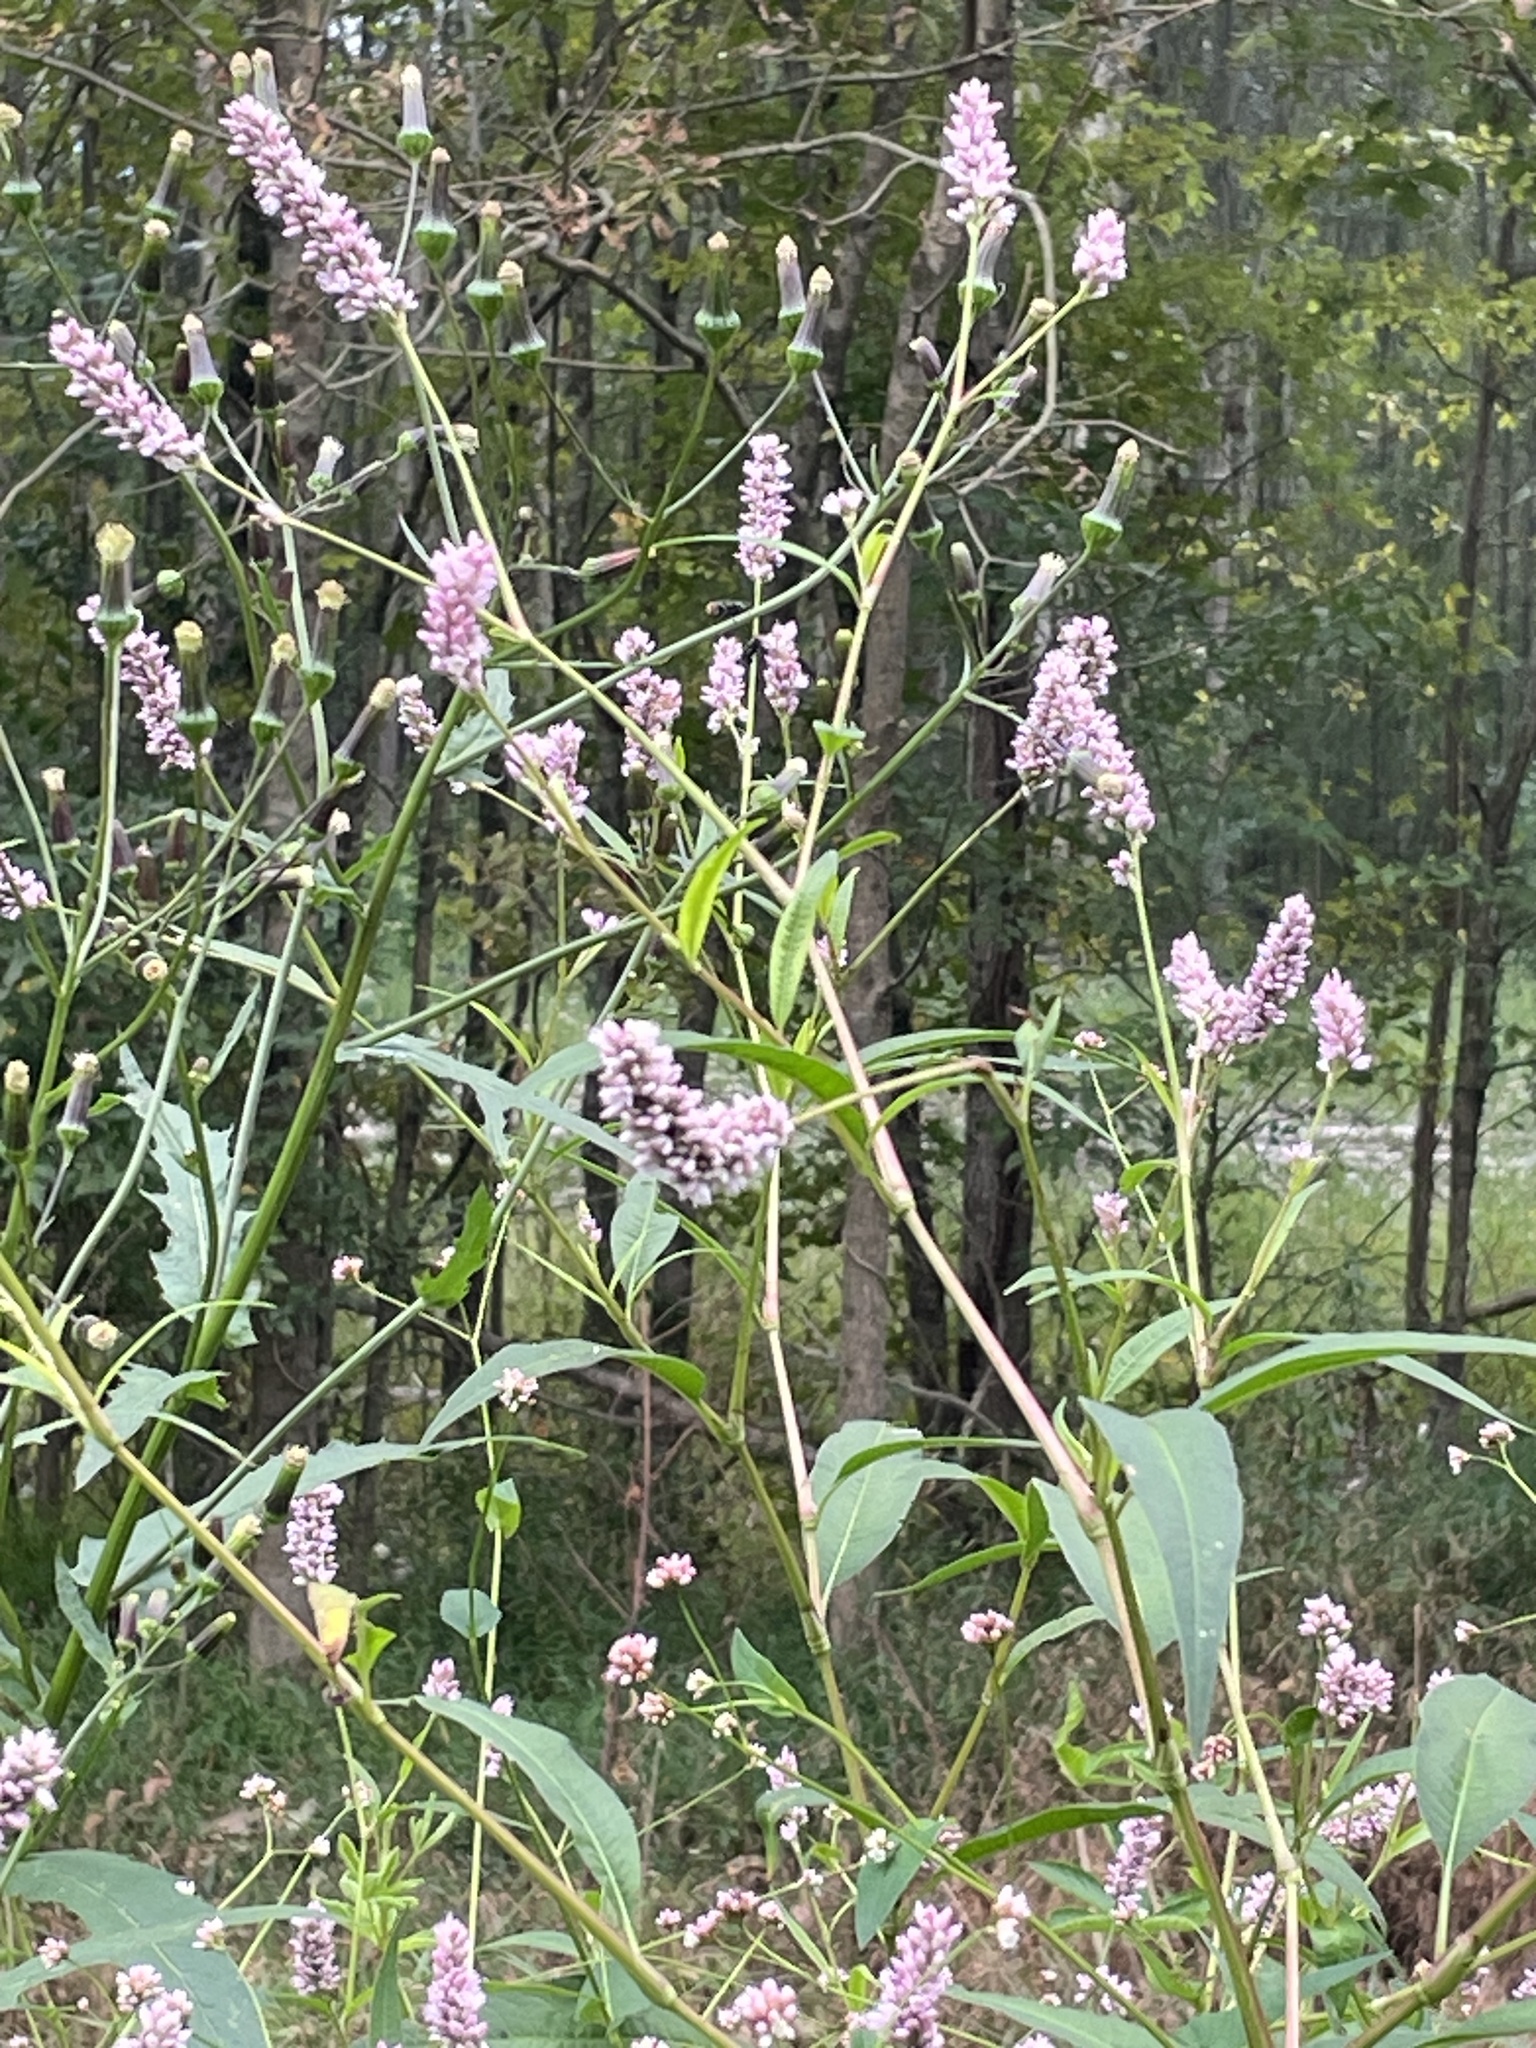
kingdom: Plantae
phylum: Tracheophyta
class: Magnoliopsida
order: Caryophyllales
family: Polygonaceae
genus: Persicaria
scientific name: Persicaria pensylvanica
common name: Pinkweed
